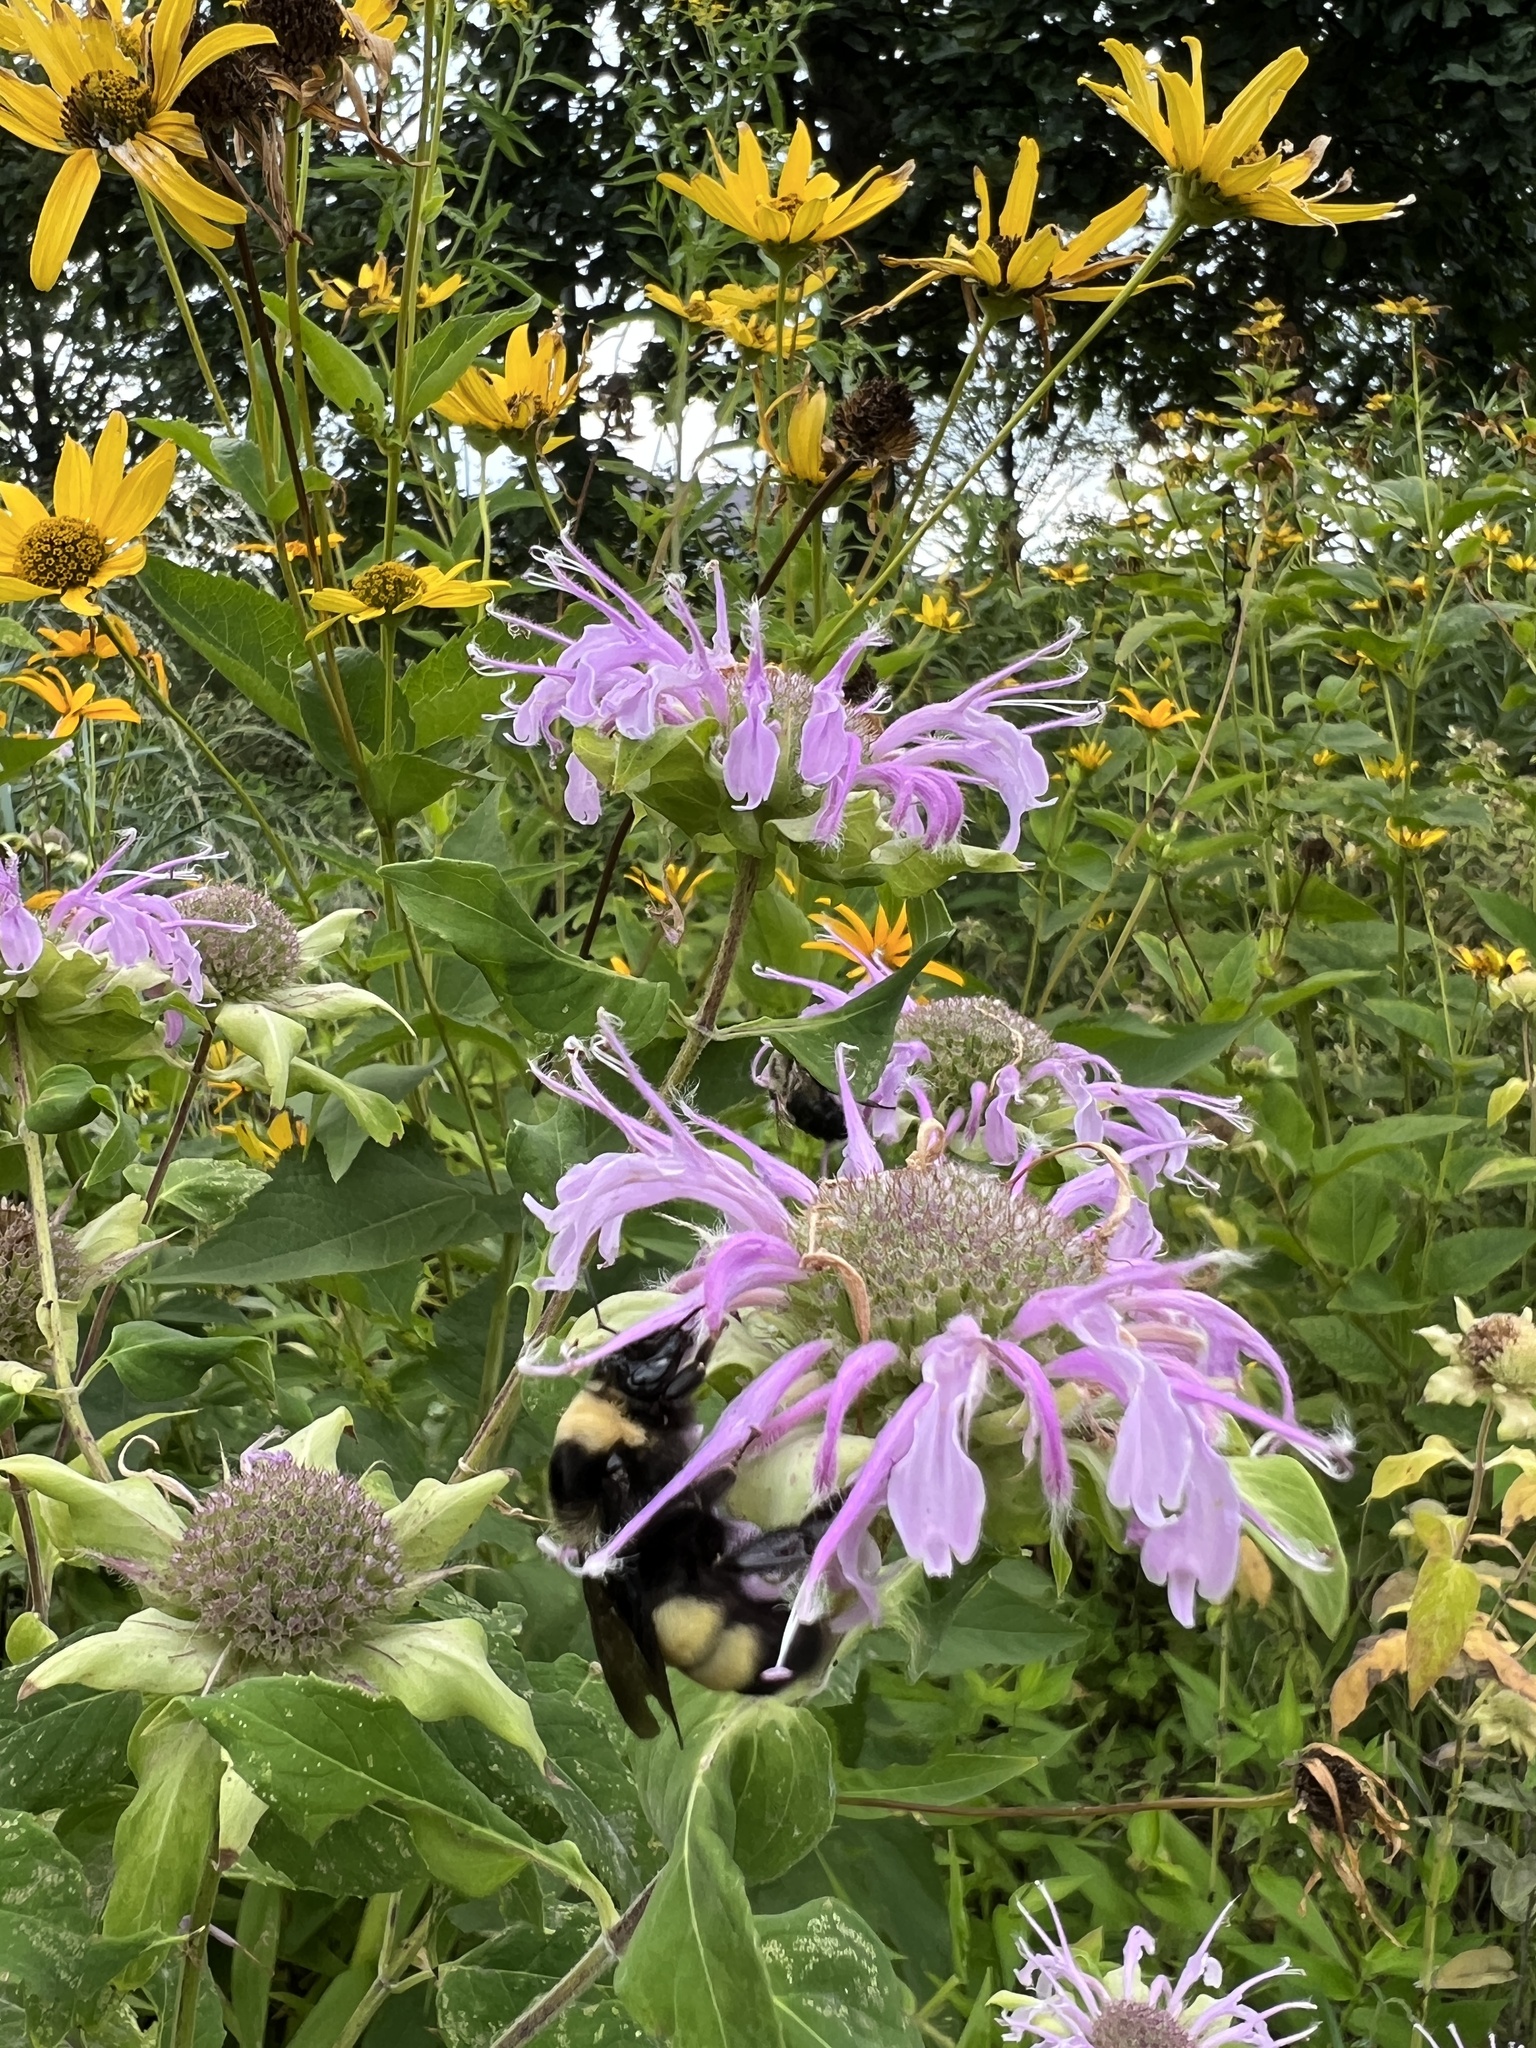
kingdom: Animalia
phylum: Arthropoda
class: Insecta
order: Hymenoptera
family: Apidae
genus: Bombus
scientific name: Bombus auricomus
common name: Black and gold bumble bee
